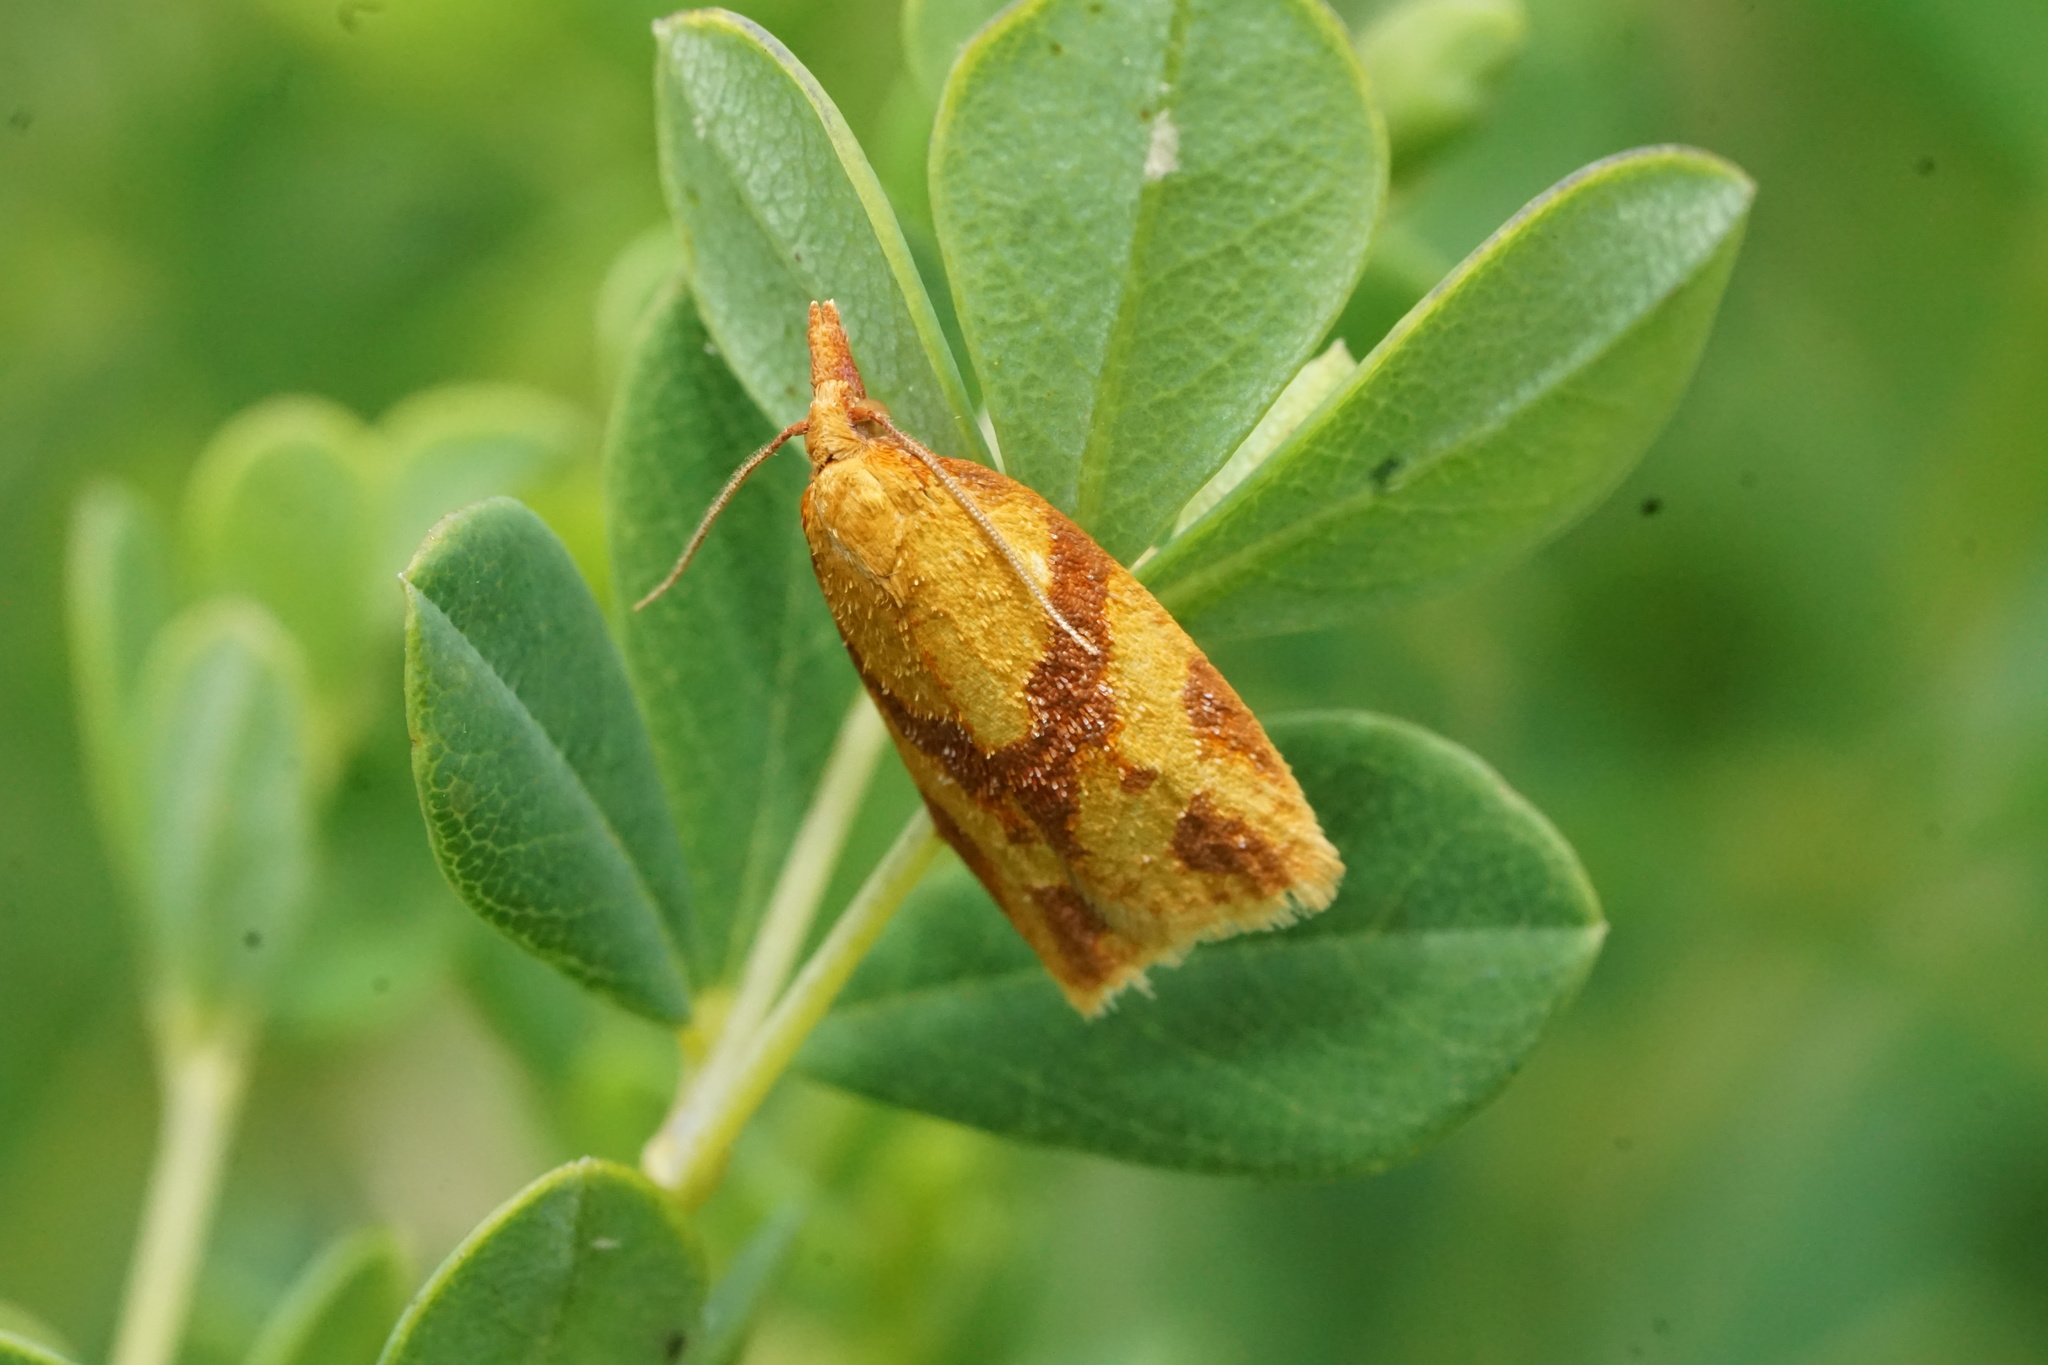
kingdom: Animalia
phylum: Arthropoda
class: Insecta
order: Lepidoptera
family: Tortricidae
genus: Sparganothis
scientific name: Sparganothis unifasciana
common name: One-lined sparganothis moth
